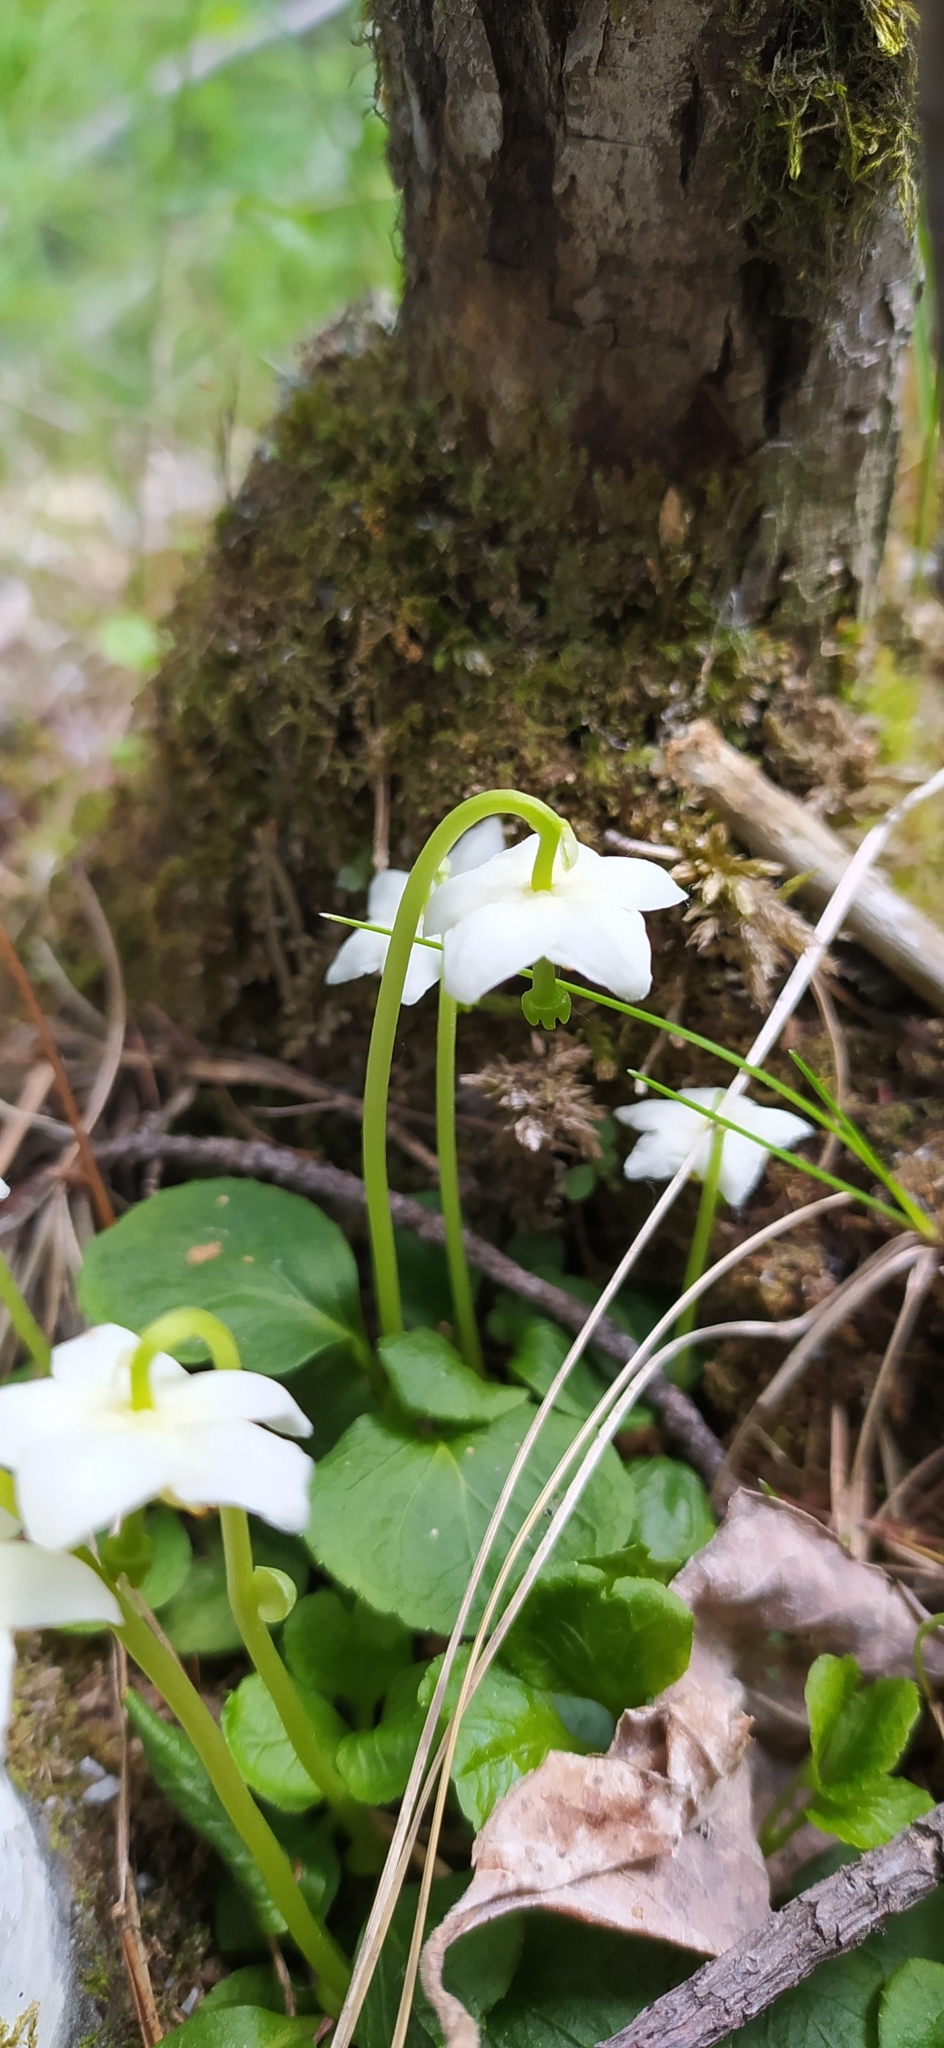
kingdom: Plantae
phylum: Tracheophyta
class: Magnoliopsida
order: Ericales
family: Ericaceae
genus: Moneses
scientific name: Moneses uniflora
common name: One-flowered wintergreen
